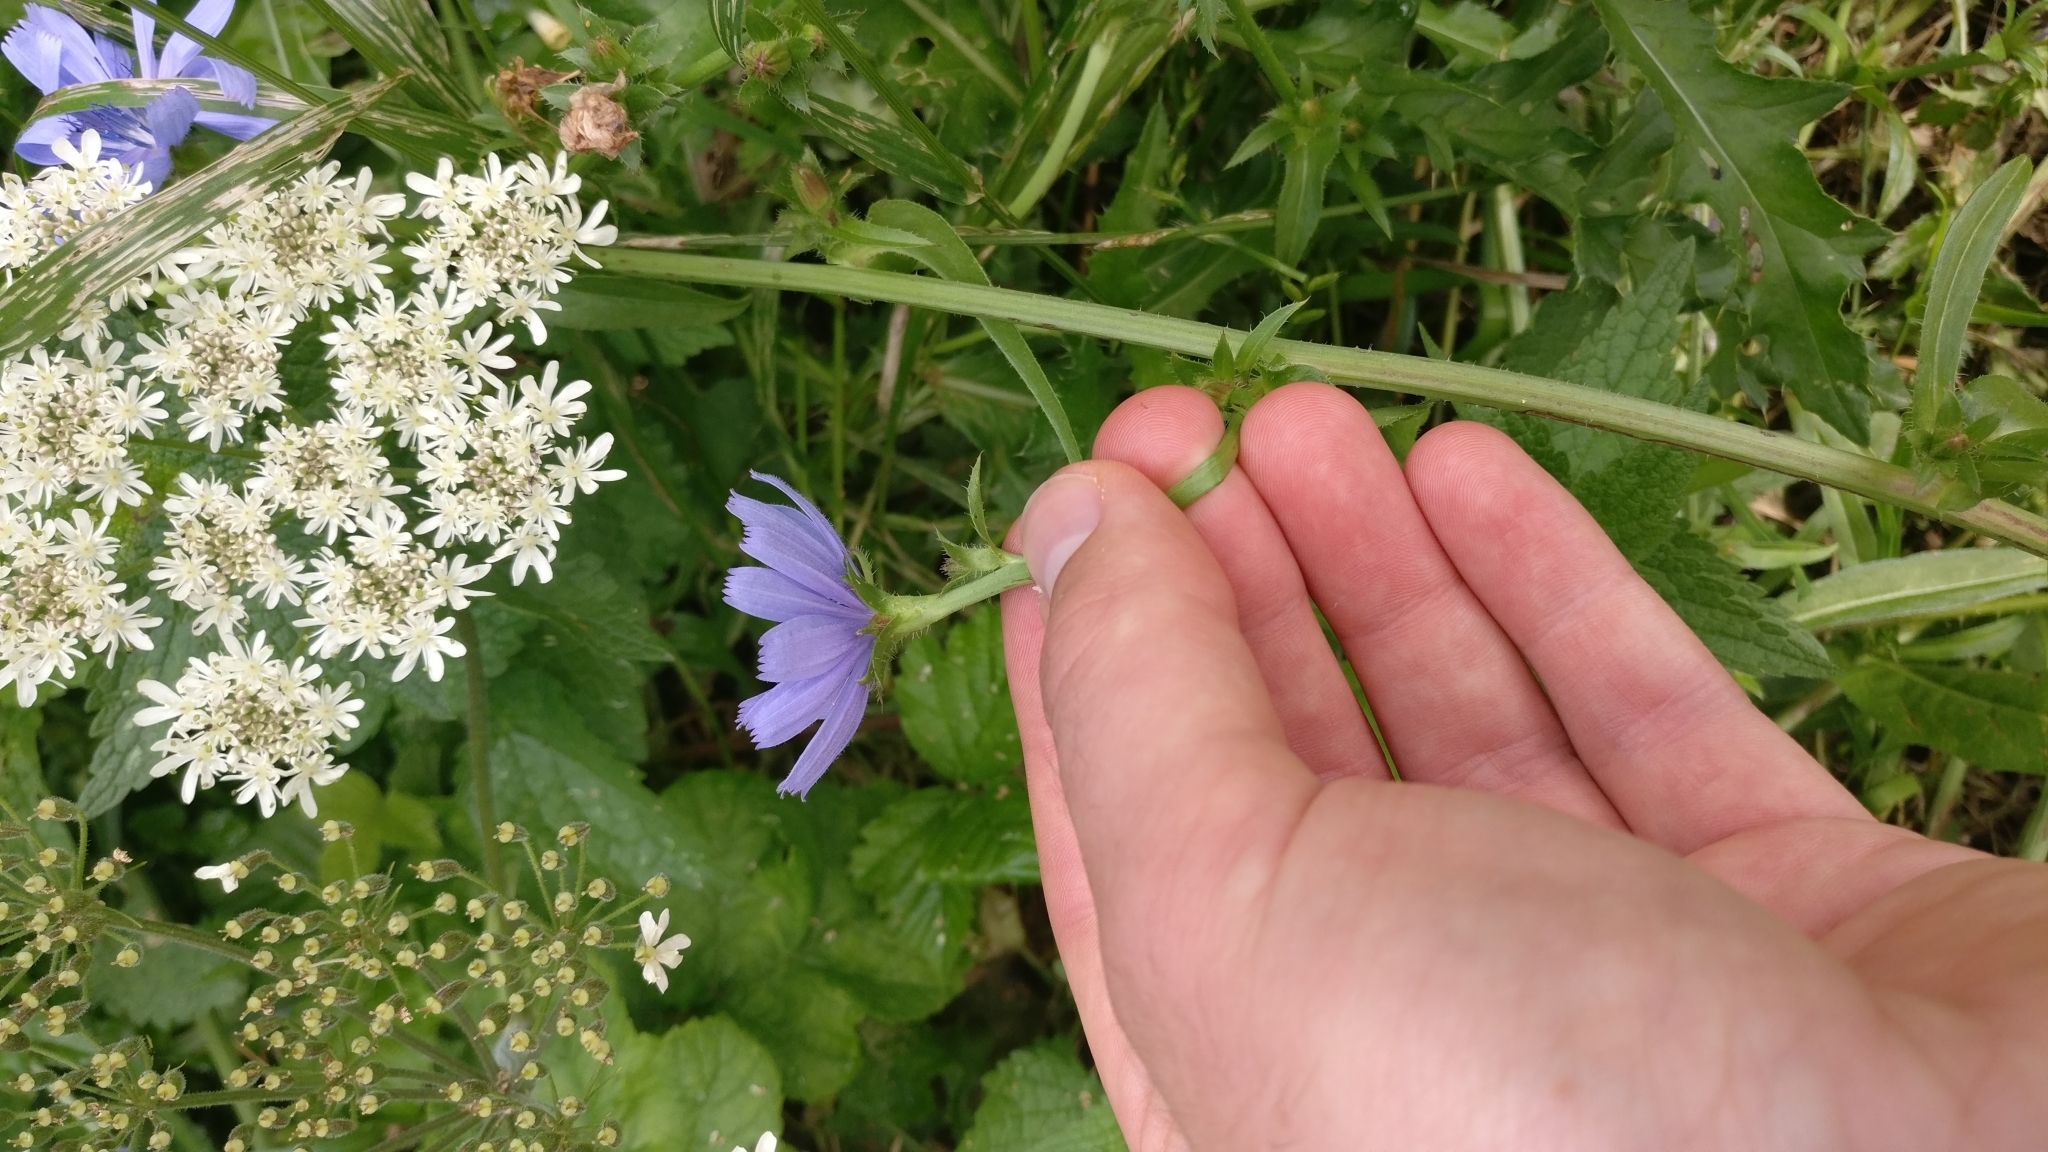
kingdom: Plantae
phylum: Tracheophyta
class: Magnoliopsida
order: Asterales
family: Asteraceae
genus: Cichorium
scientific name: Cichorium intybus
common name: Chicory
